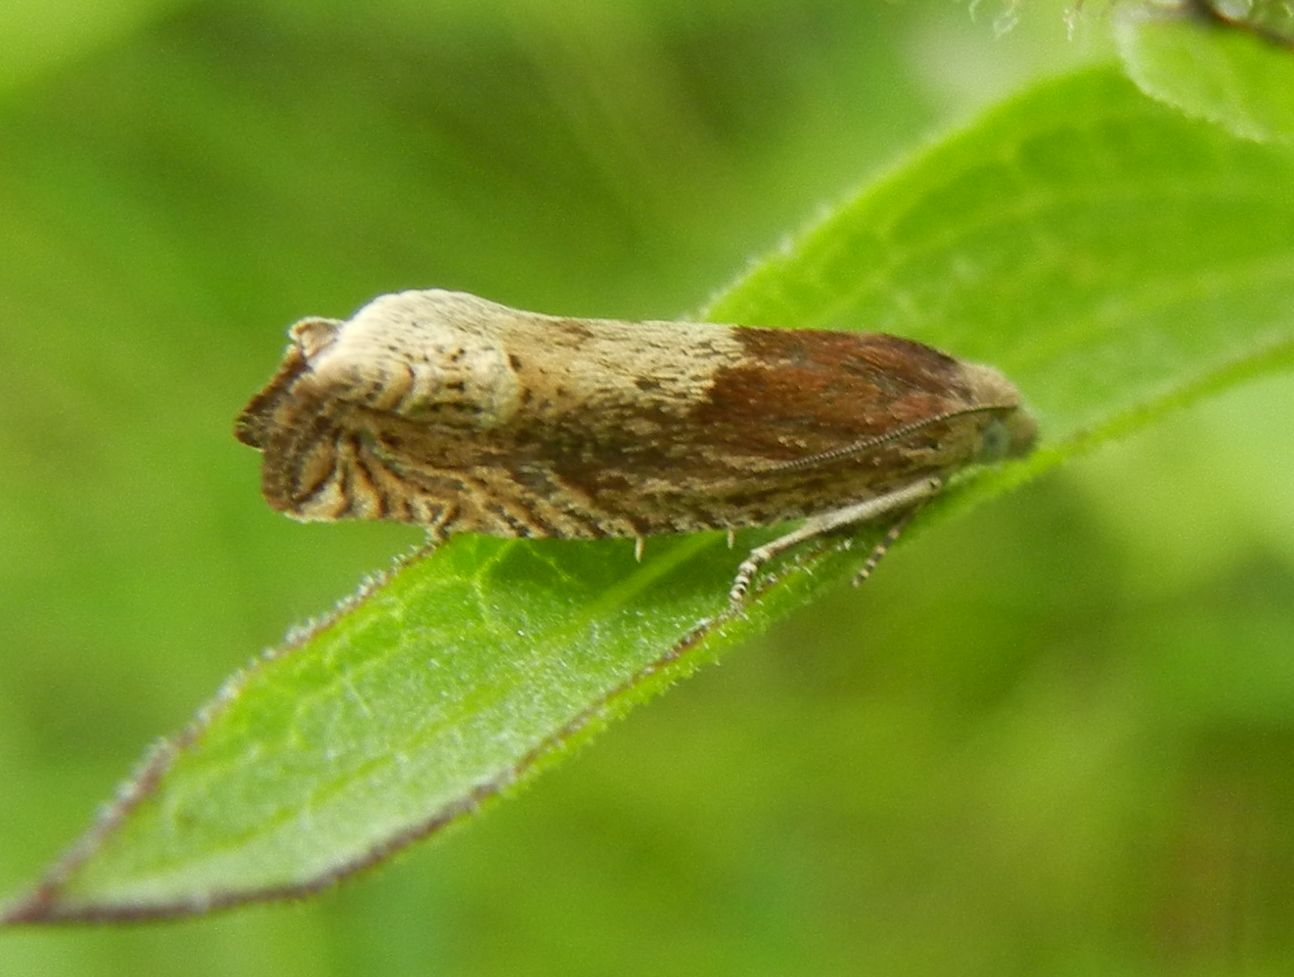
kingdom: Animalia
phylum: Arthropoda
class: Insecta
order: Lepidoptera
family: Tortricidae
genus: Eucosma
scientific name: Eucosma cana
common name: Hoary belle
